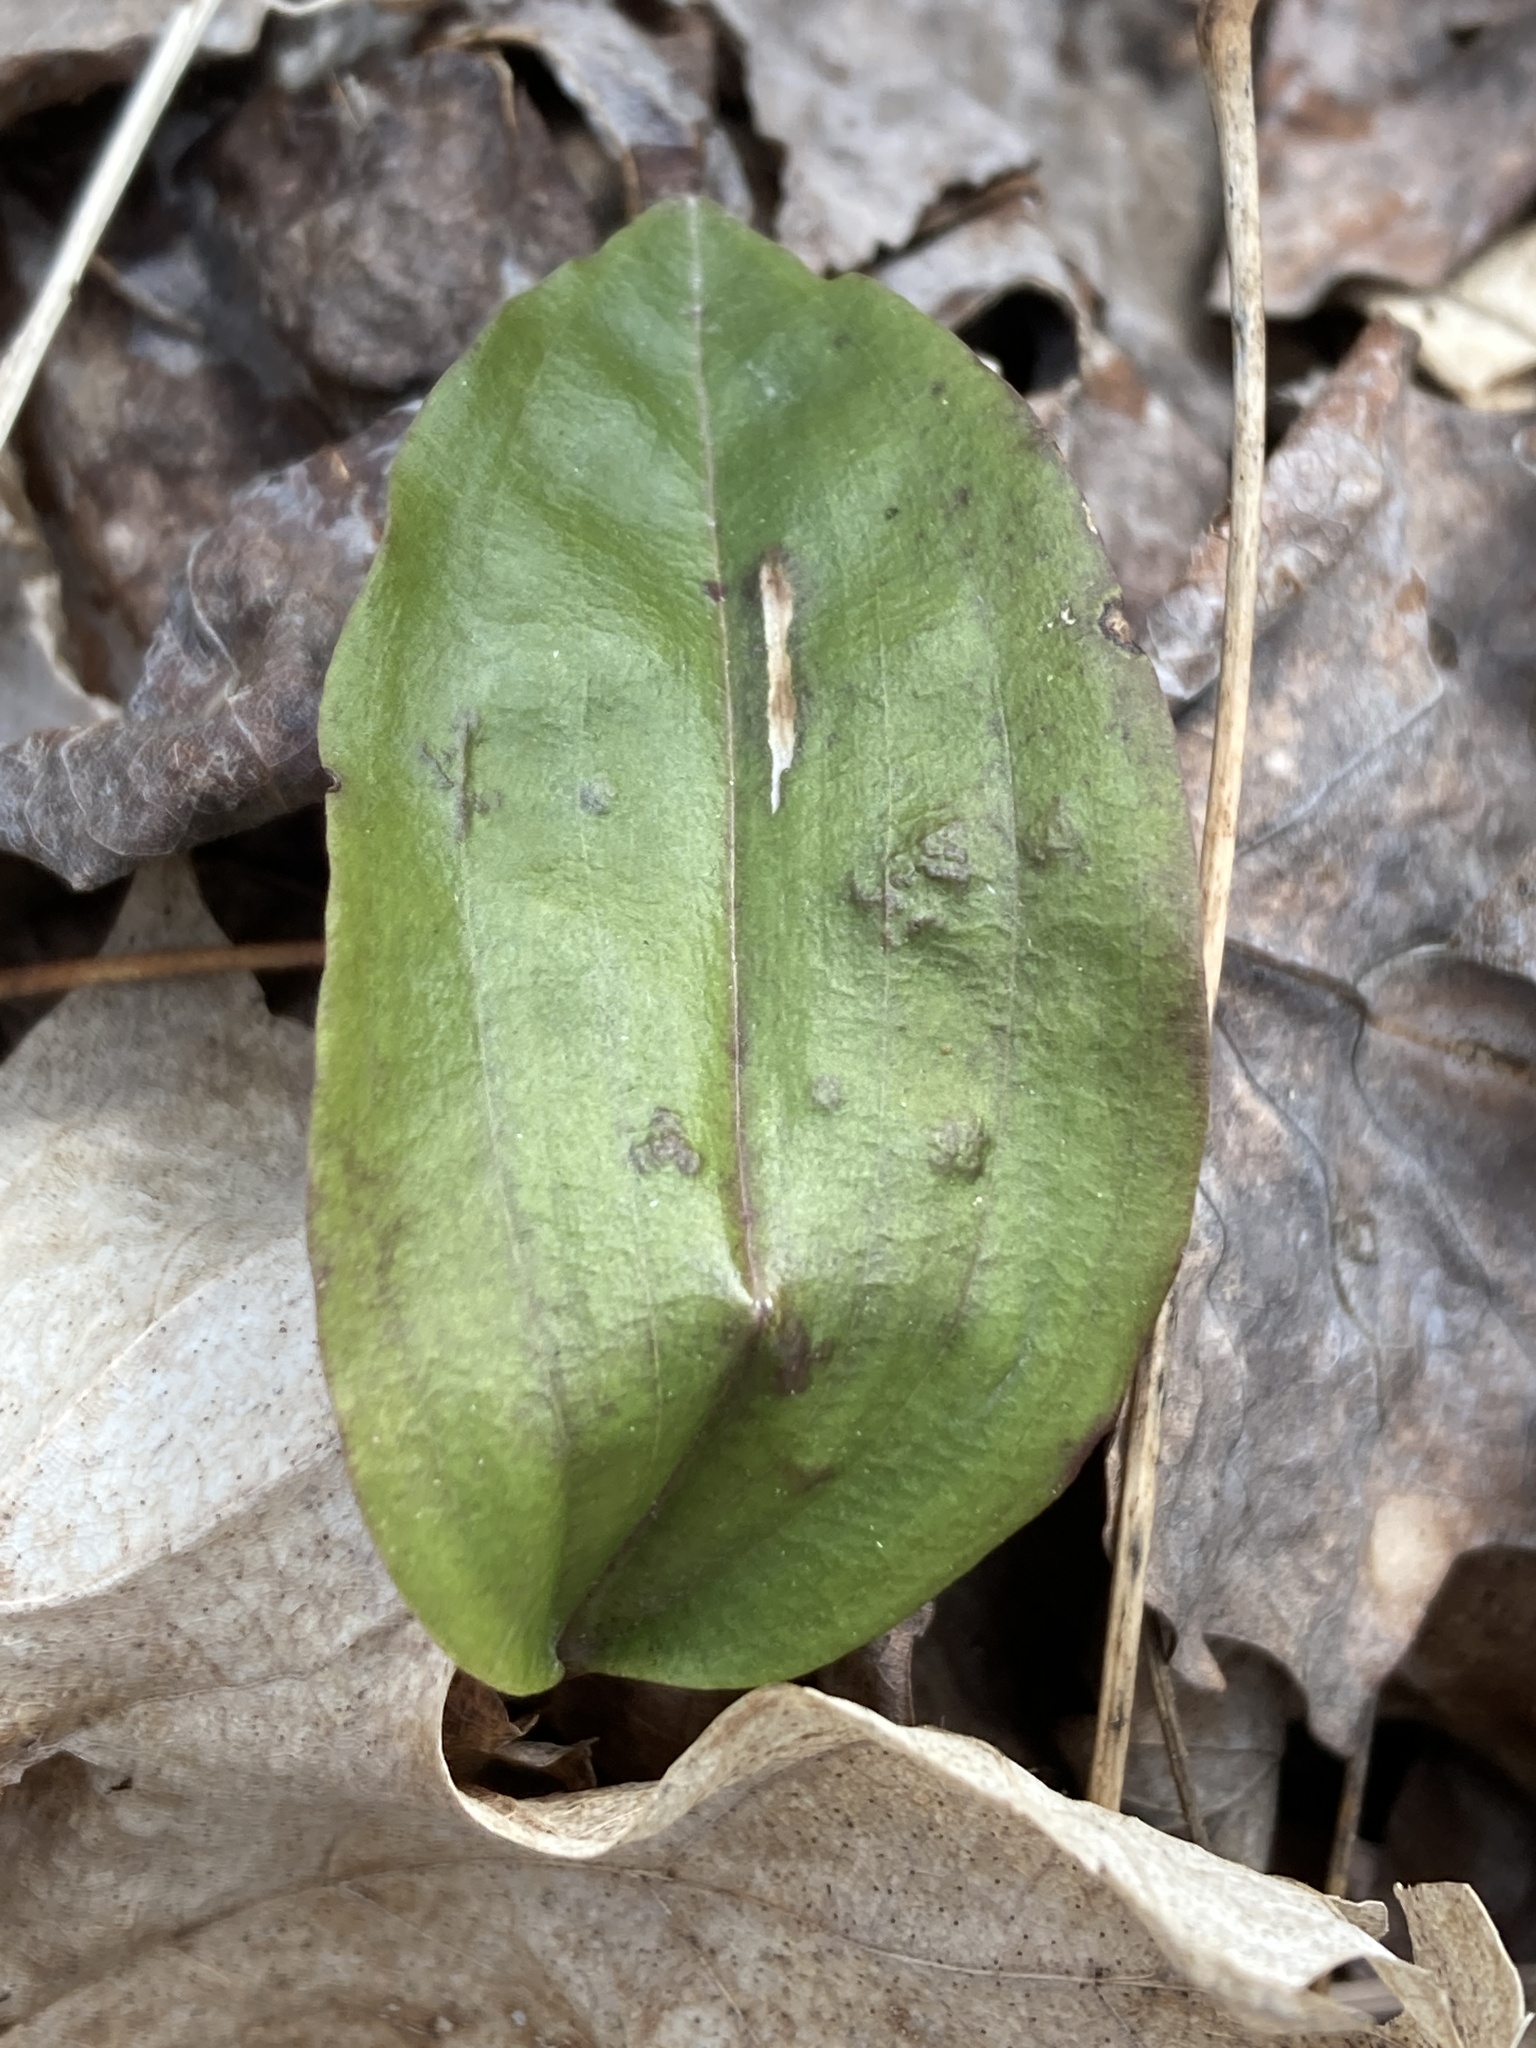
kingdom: Plantae
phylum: Tracheophyta
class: Liliopsida
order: Asparagales
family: Orchidaceae
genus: Tipularia
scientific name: Tipularia discolor
